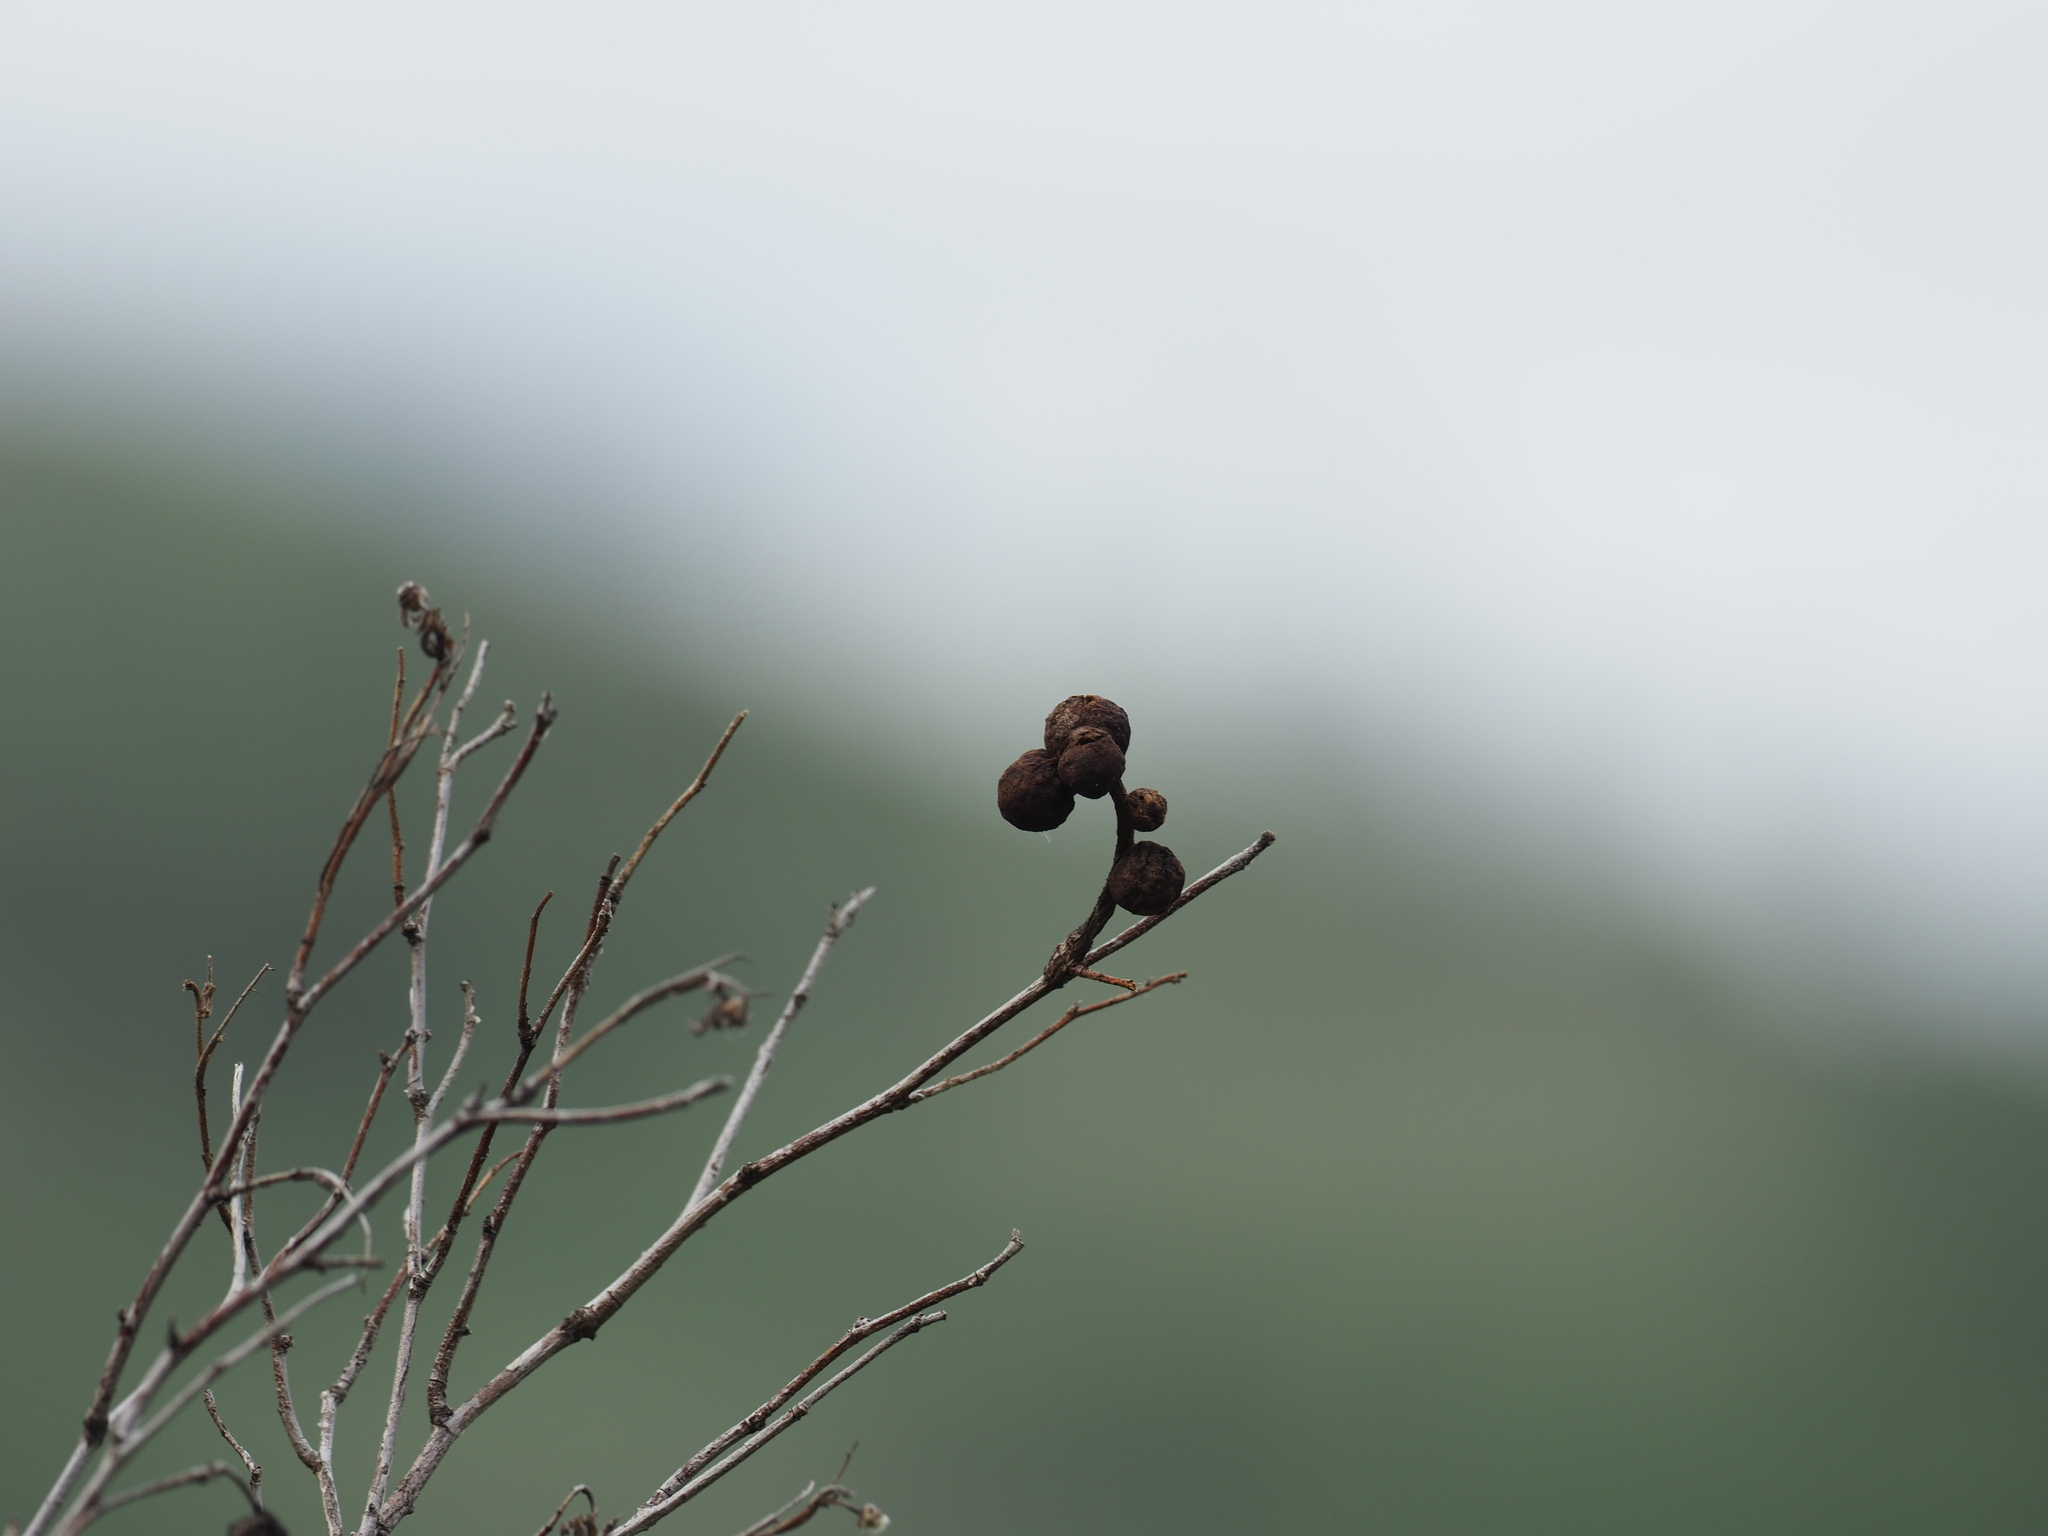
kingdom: Animalia
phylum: Arthropoda
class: Insecta
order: Hymenoptera
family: Cynipidae
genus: Diplolepis
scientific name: Diplolepis variabilis
